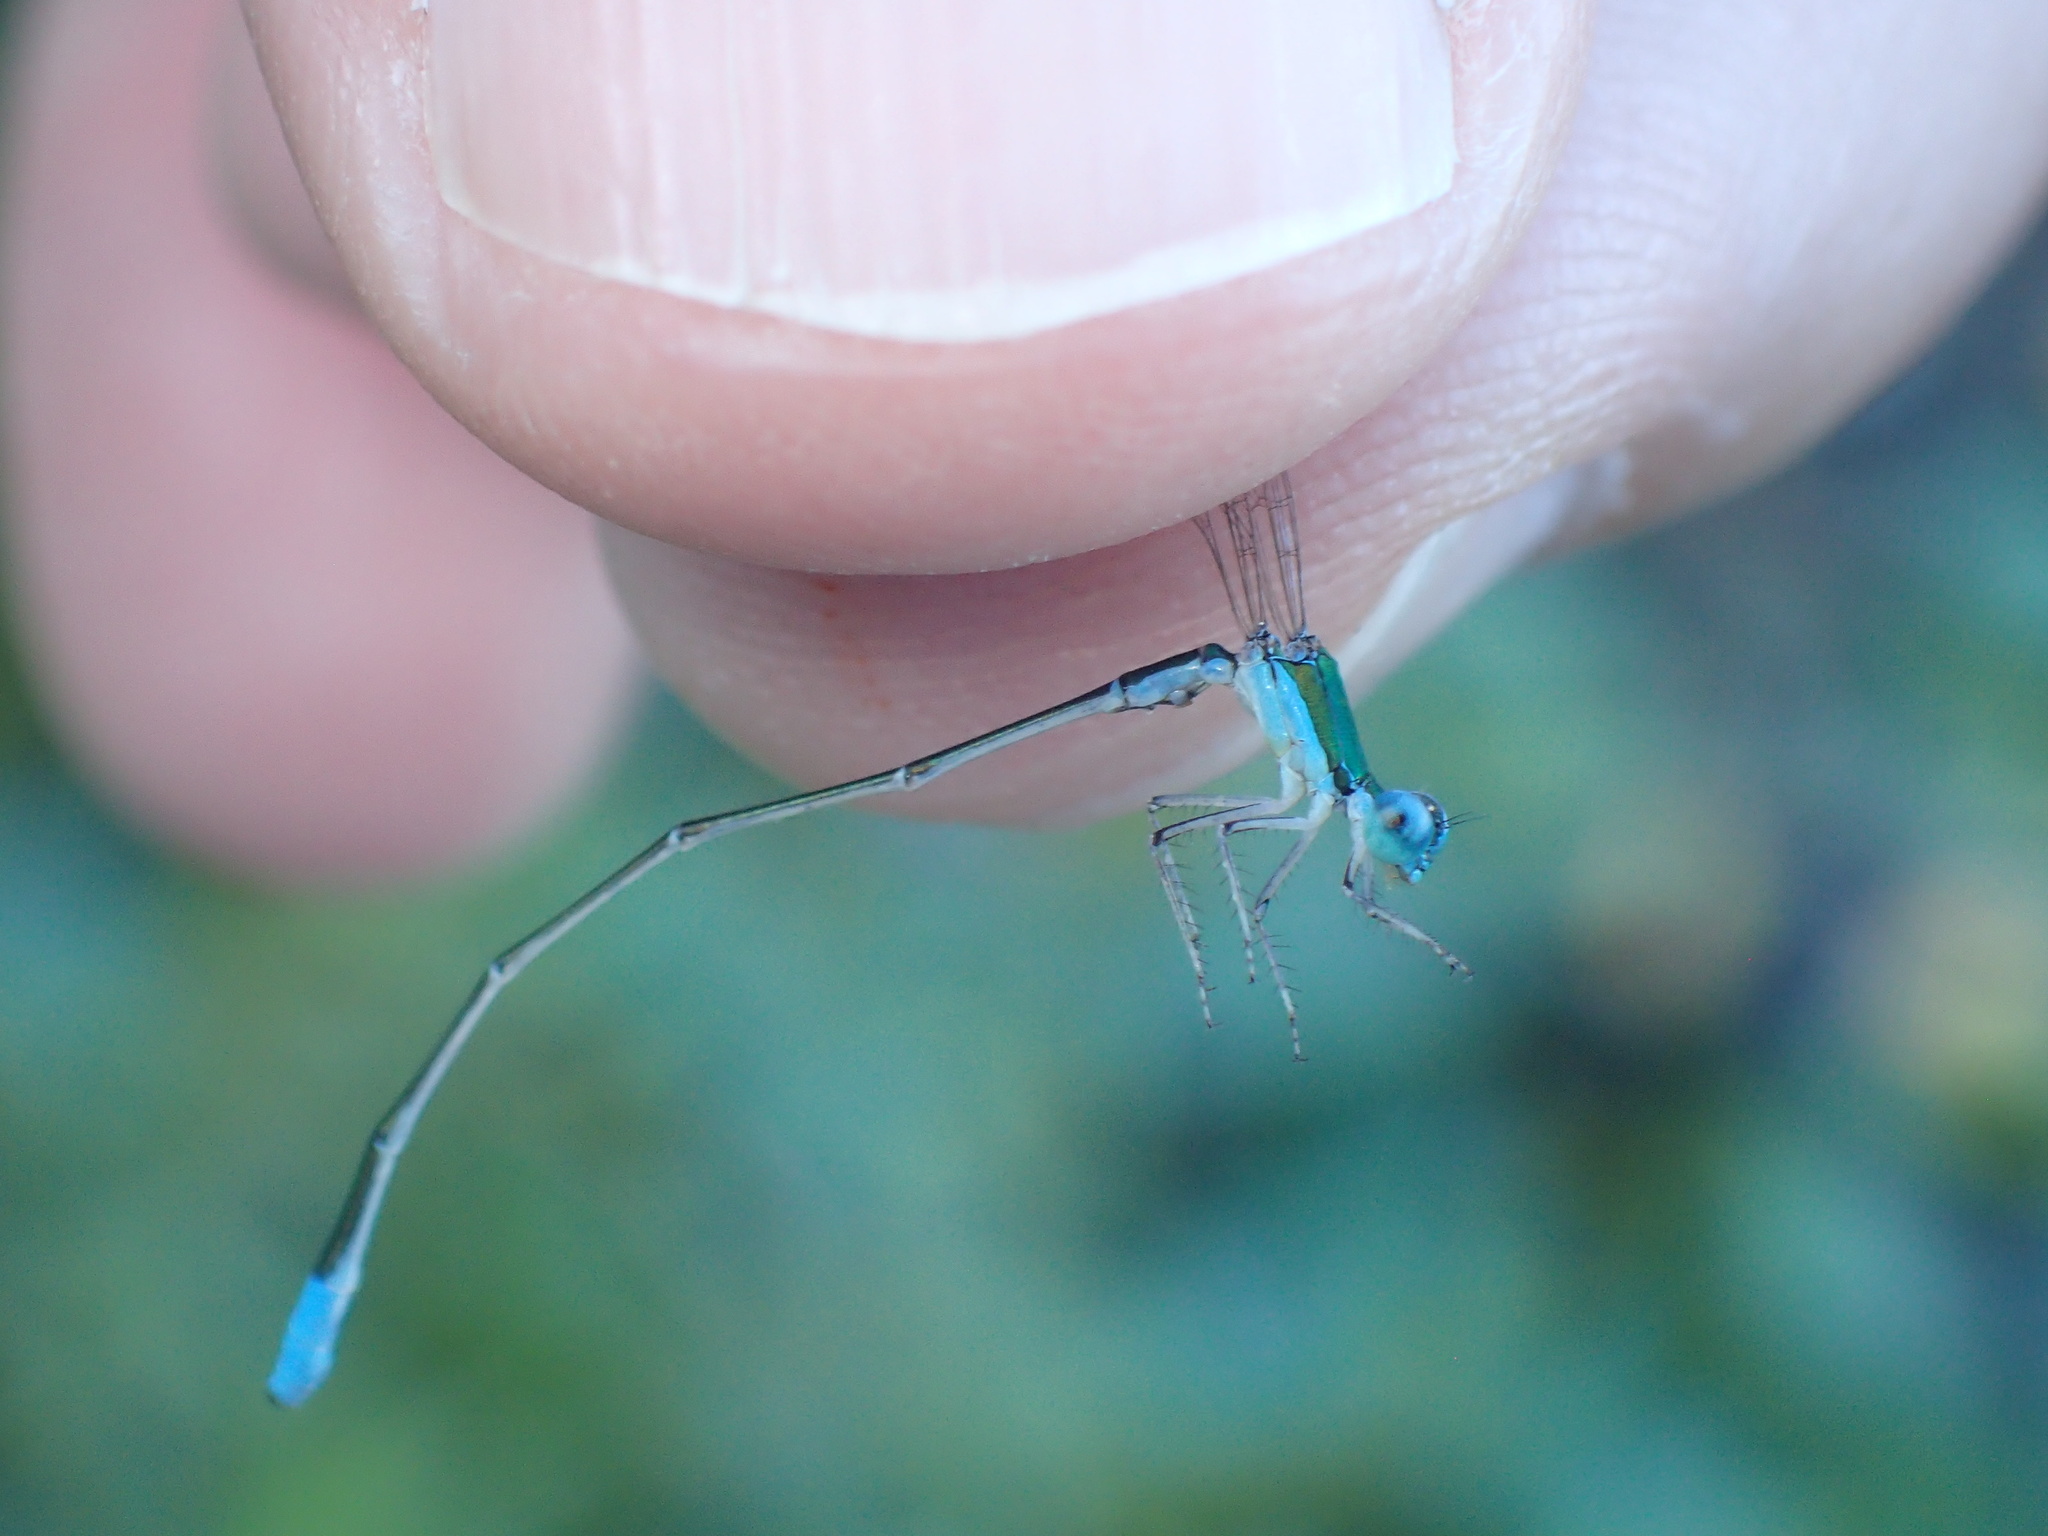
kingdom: Animalia
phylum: Arthropoda
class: Insecta
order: Odonata
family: Coenagrionidae
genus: Nehalennia
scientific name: Nehalennia gracilis
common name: Sphagnum sprite
